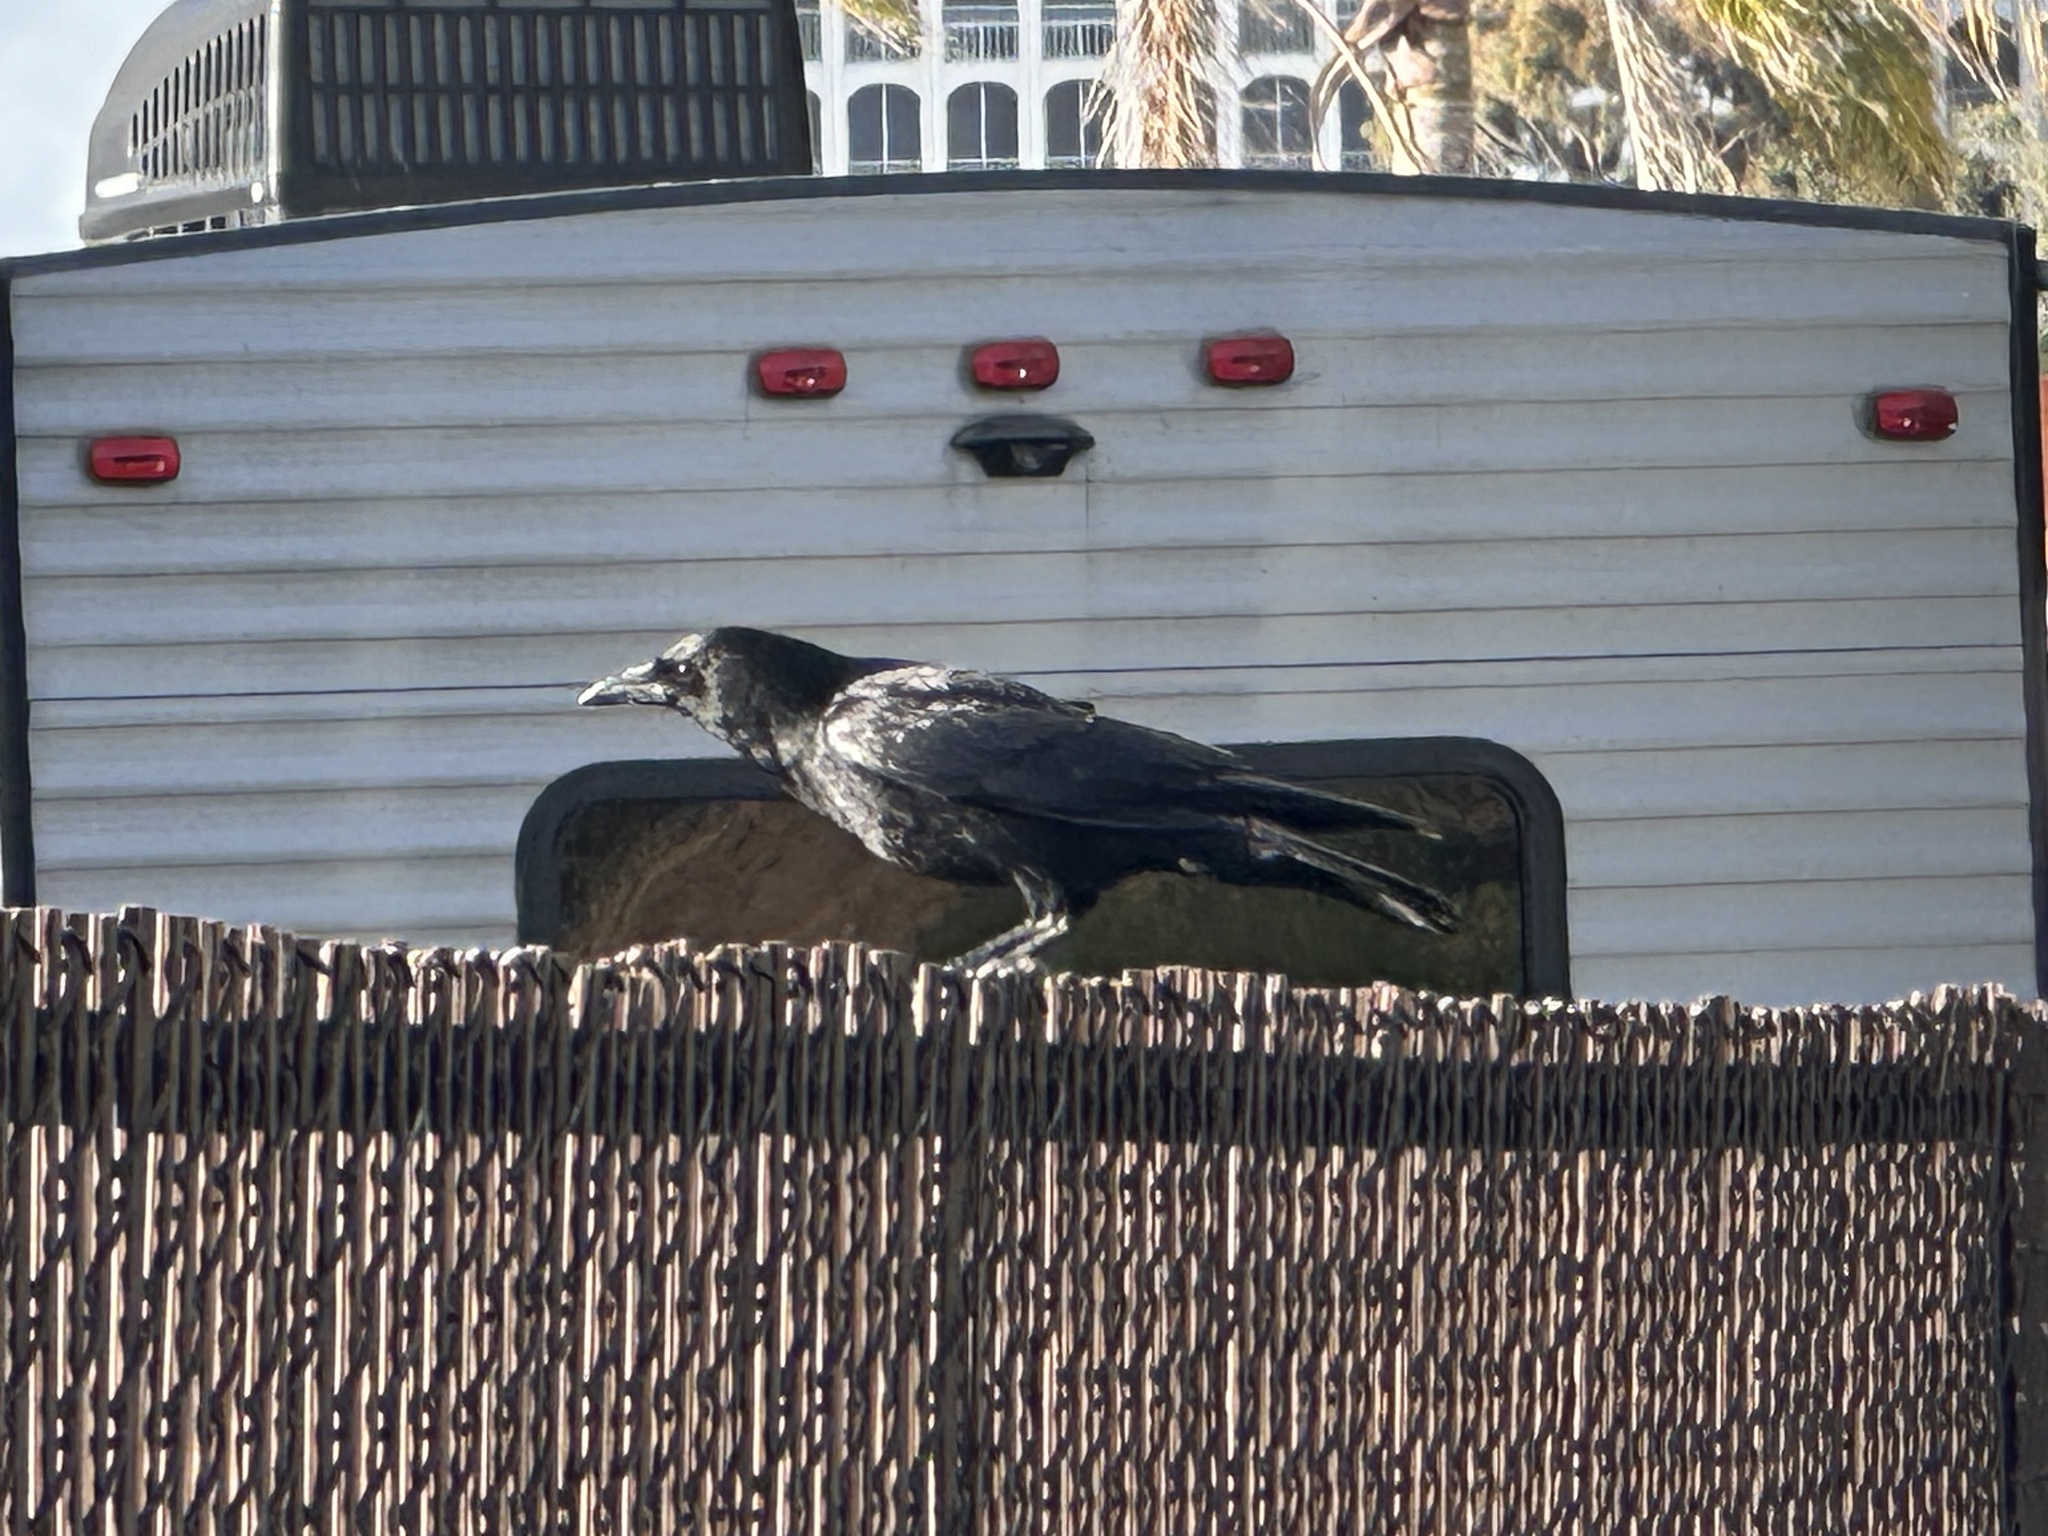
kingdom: Animalia
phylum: Chordata
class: Aves
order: Passeriformes
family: Corvidae
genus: Corvus
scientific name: Corvus brachyrhynchos
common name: American crow
